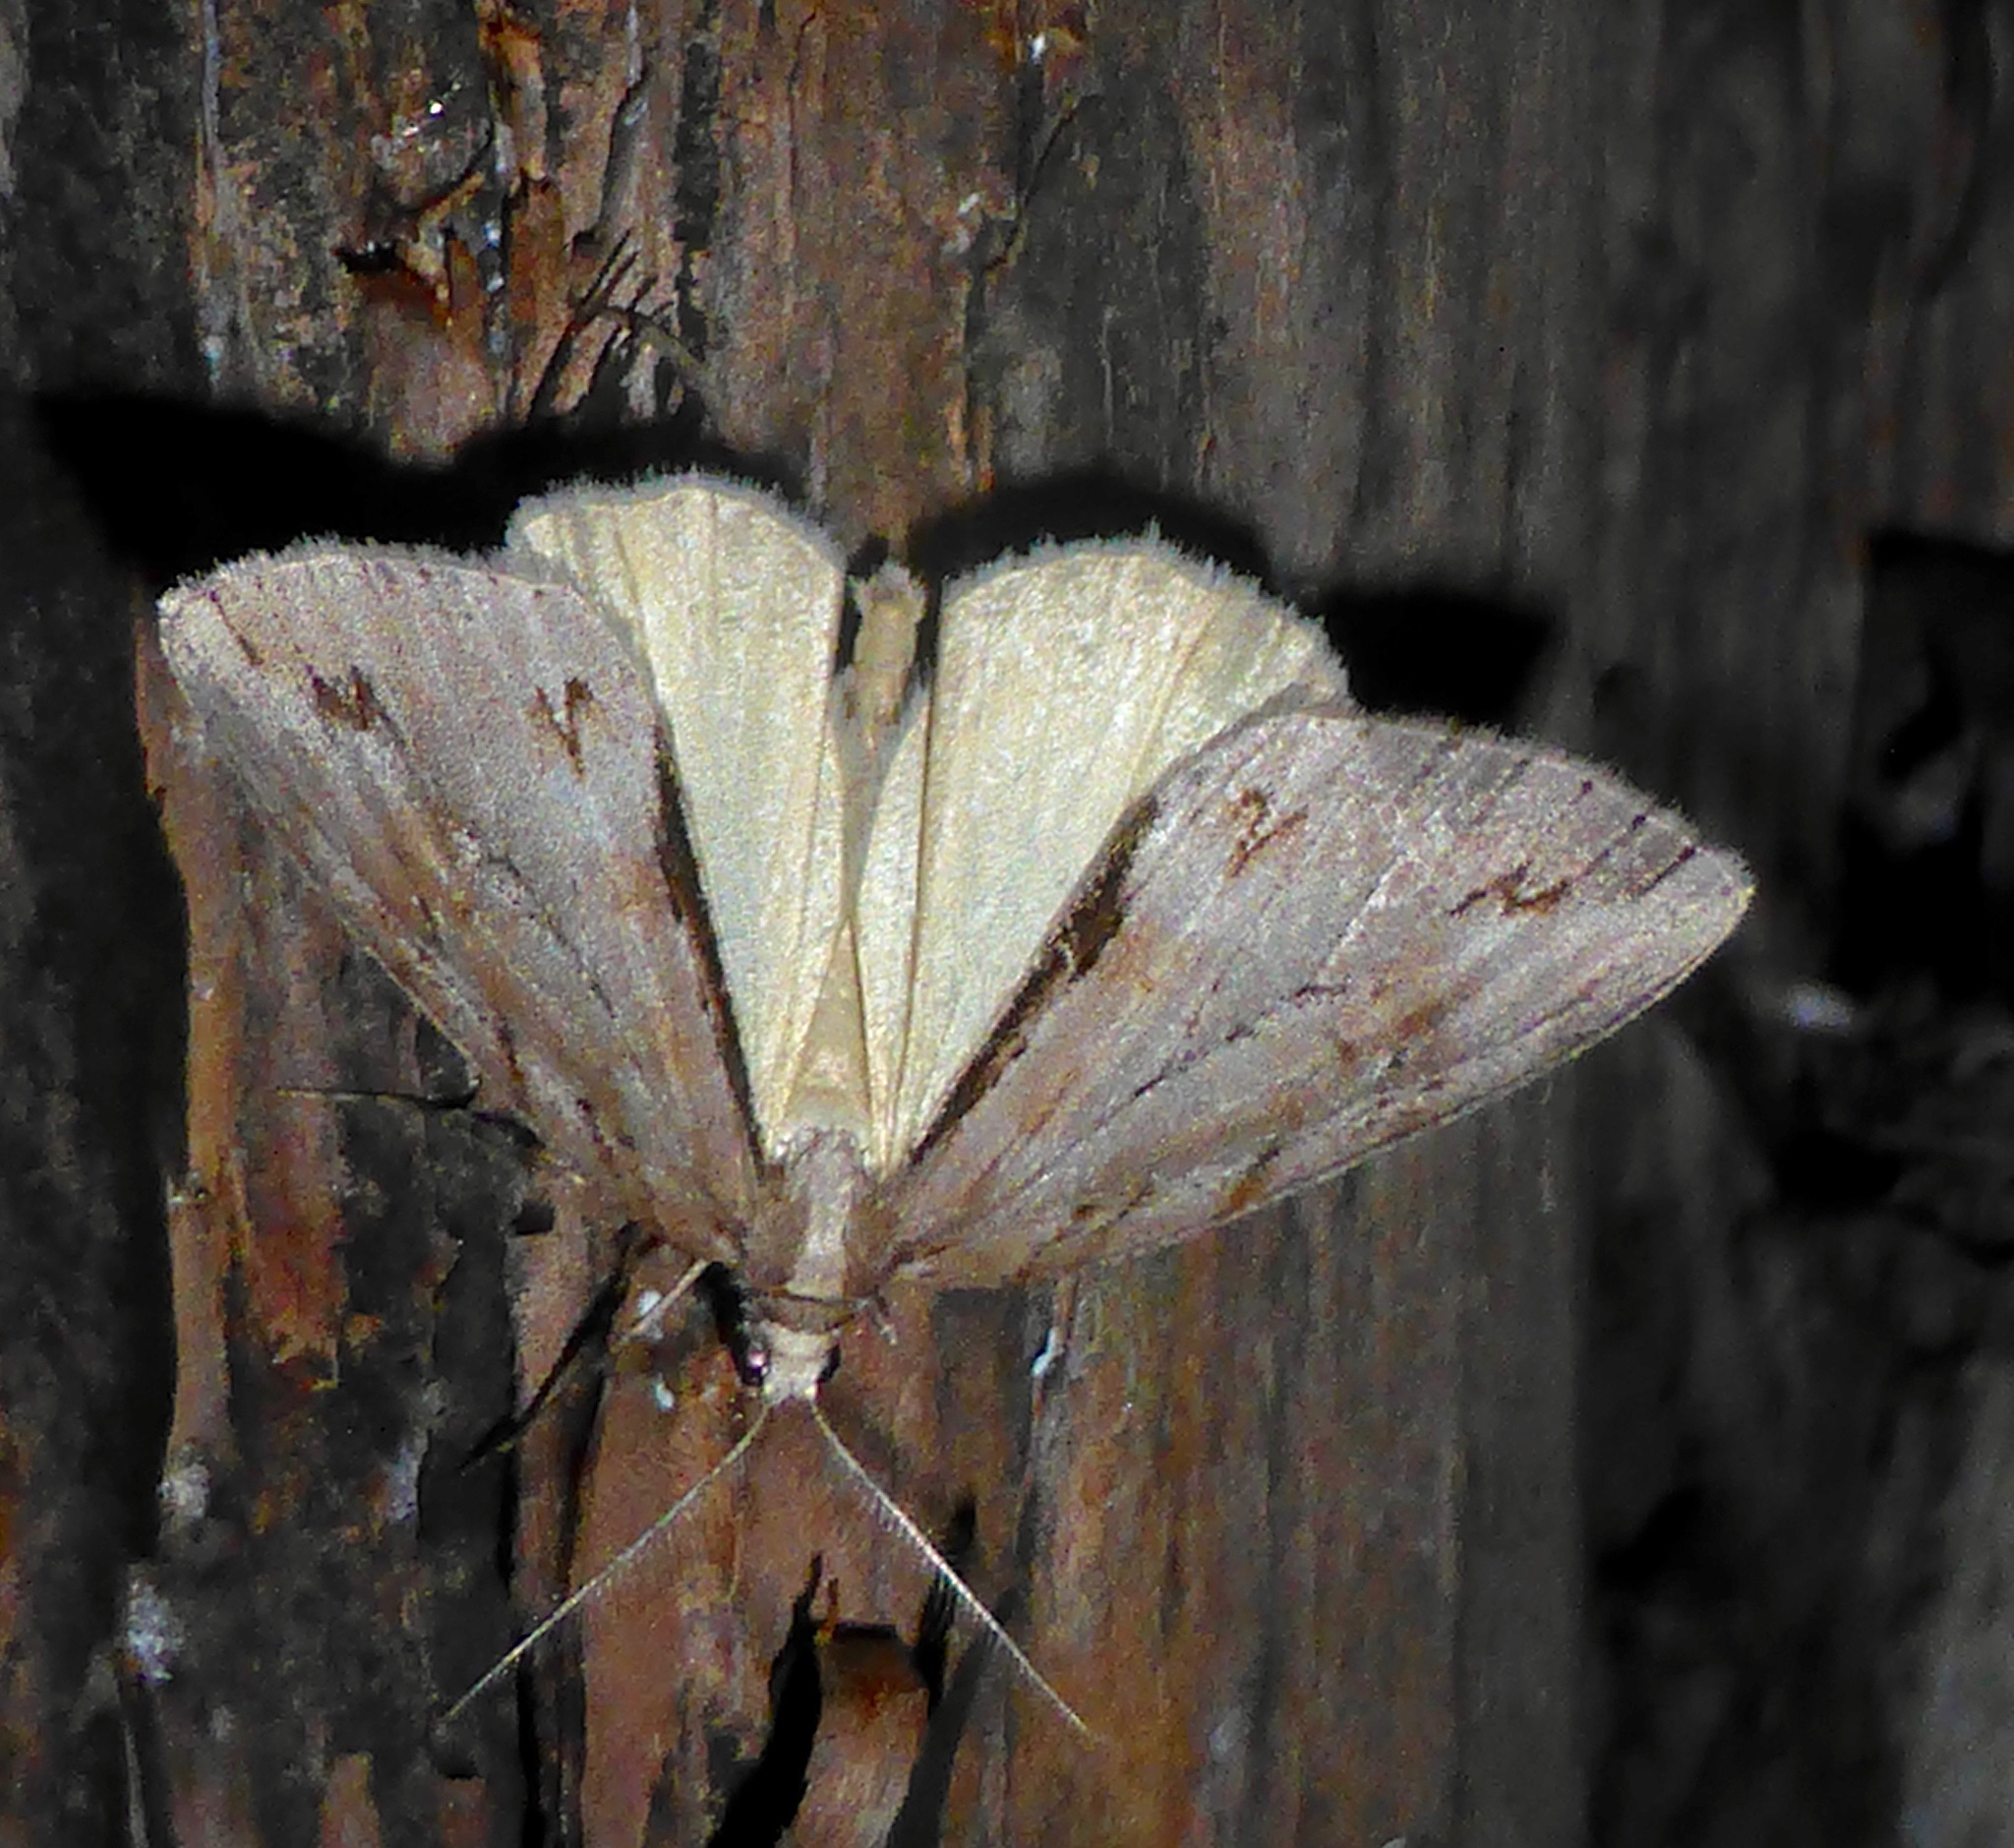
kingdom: Animalia
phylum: Arthropoda
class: Insecta
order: Lepidoptera
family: Geometridae
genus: Pseudocoremia
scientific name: Pseudocoremia lupinata
